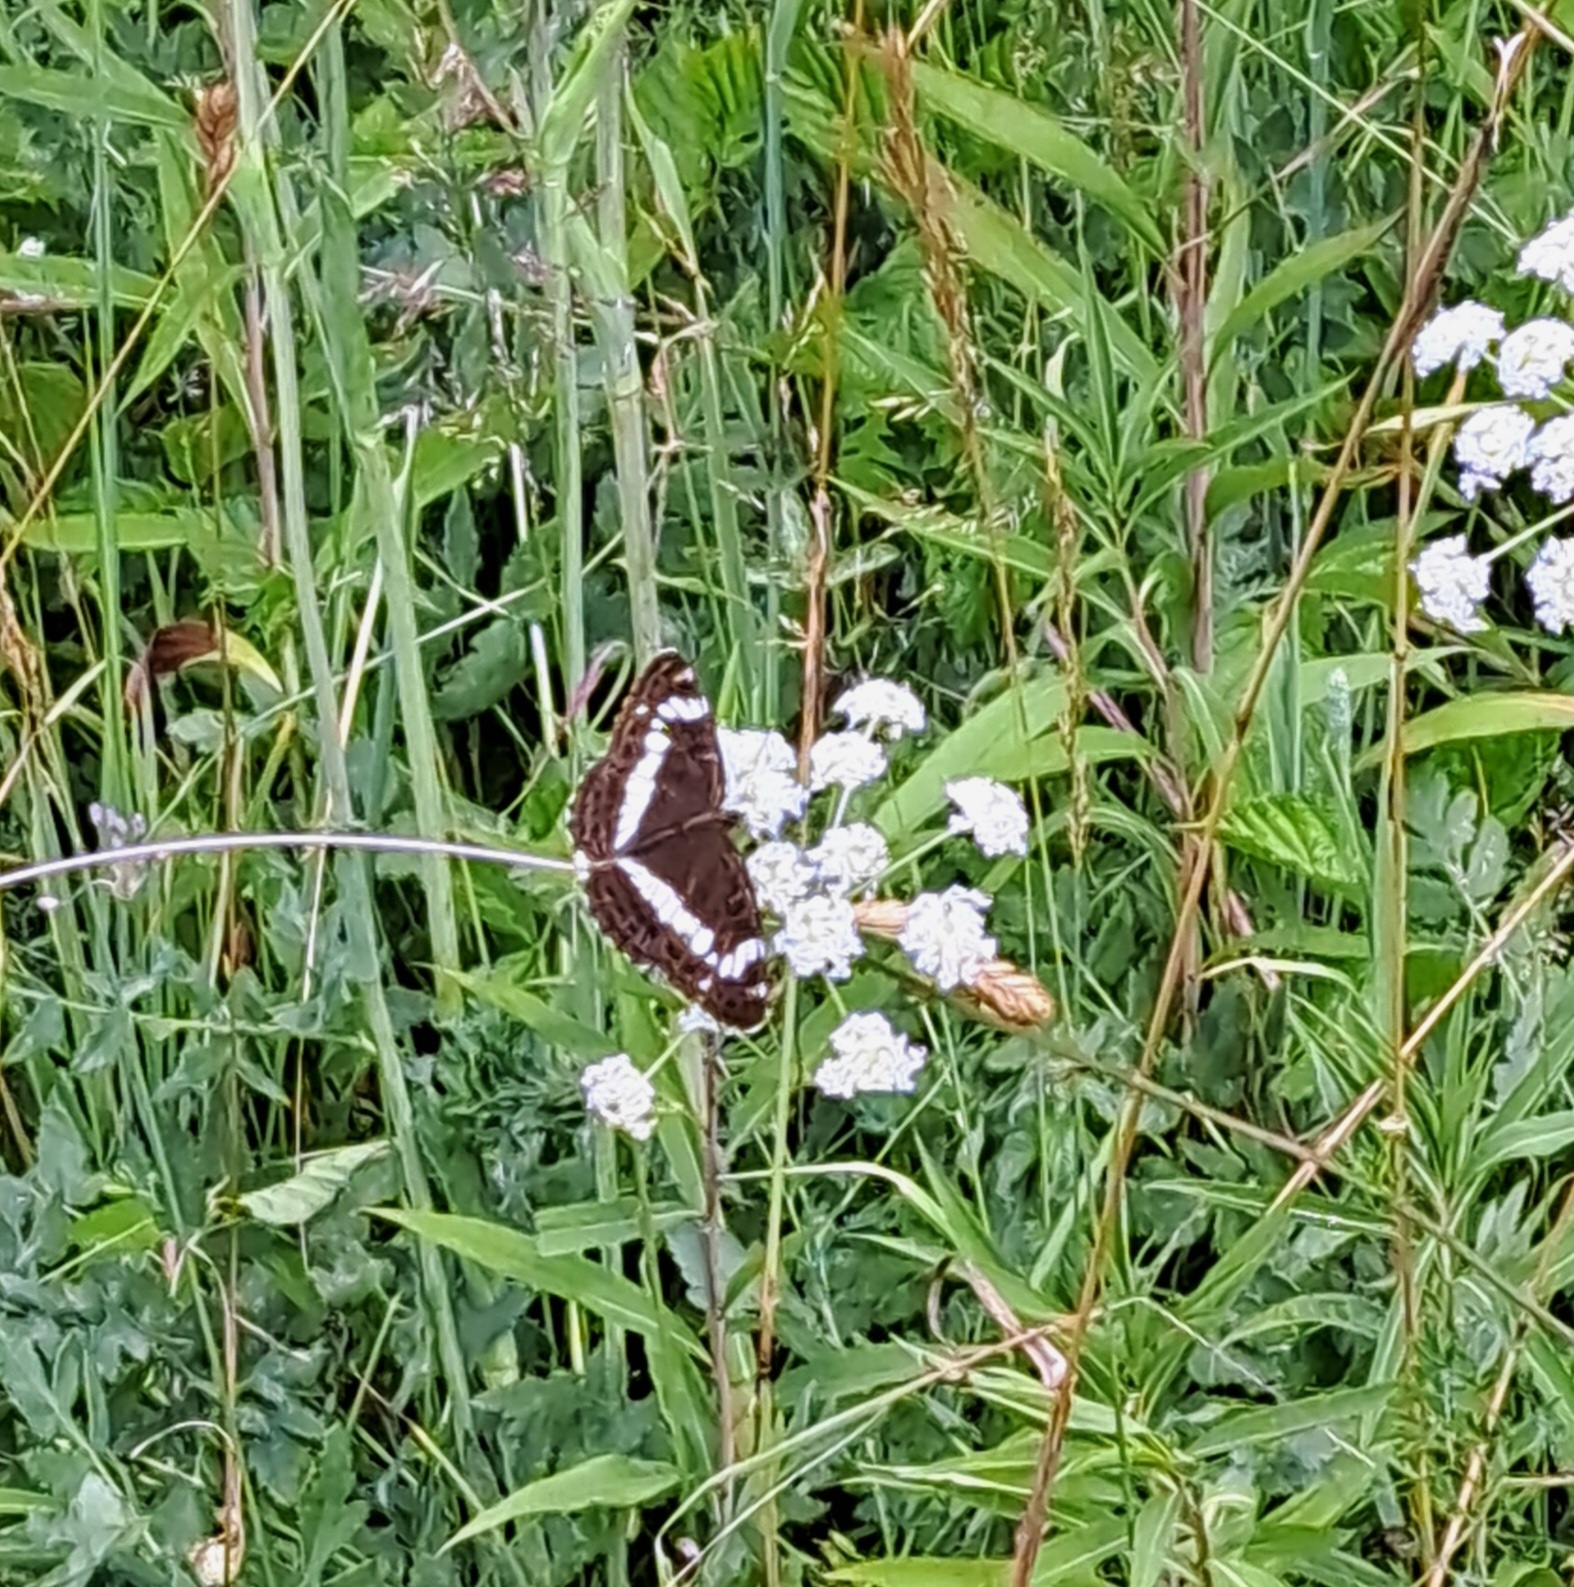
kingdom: Animalia
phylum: Arthropoda
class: Insecta
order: Lepidoptera
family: Nymphalidae
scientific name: Nymphalidae
